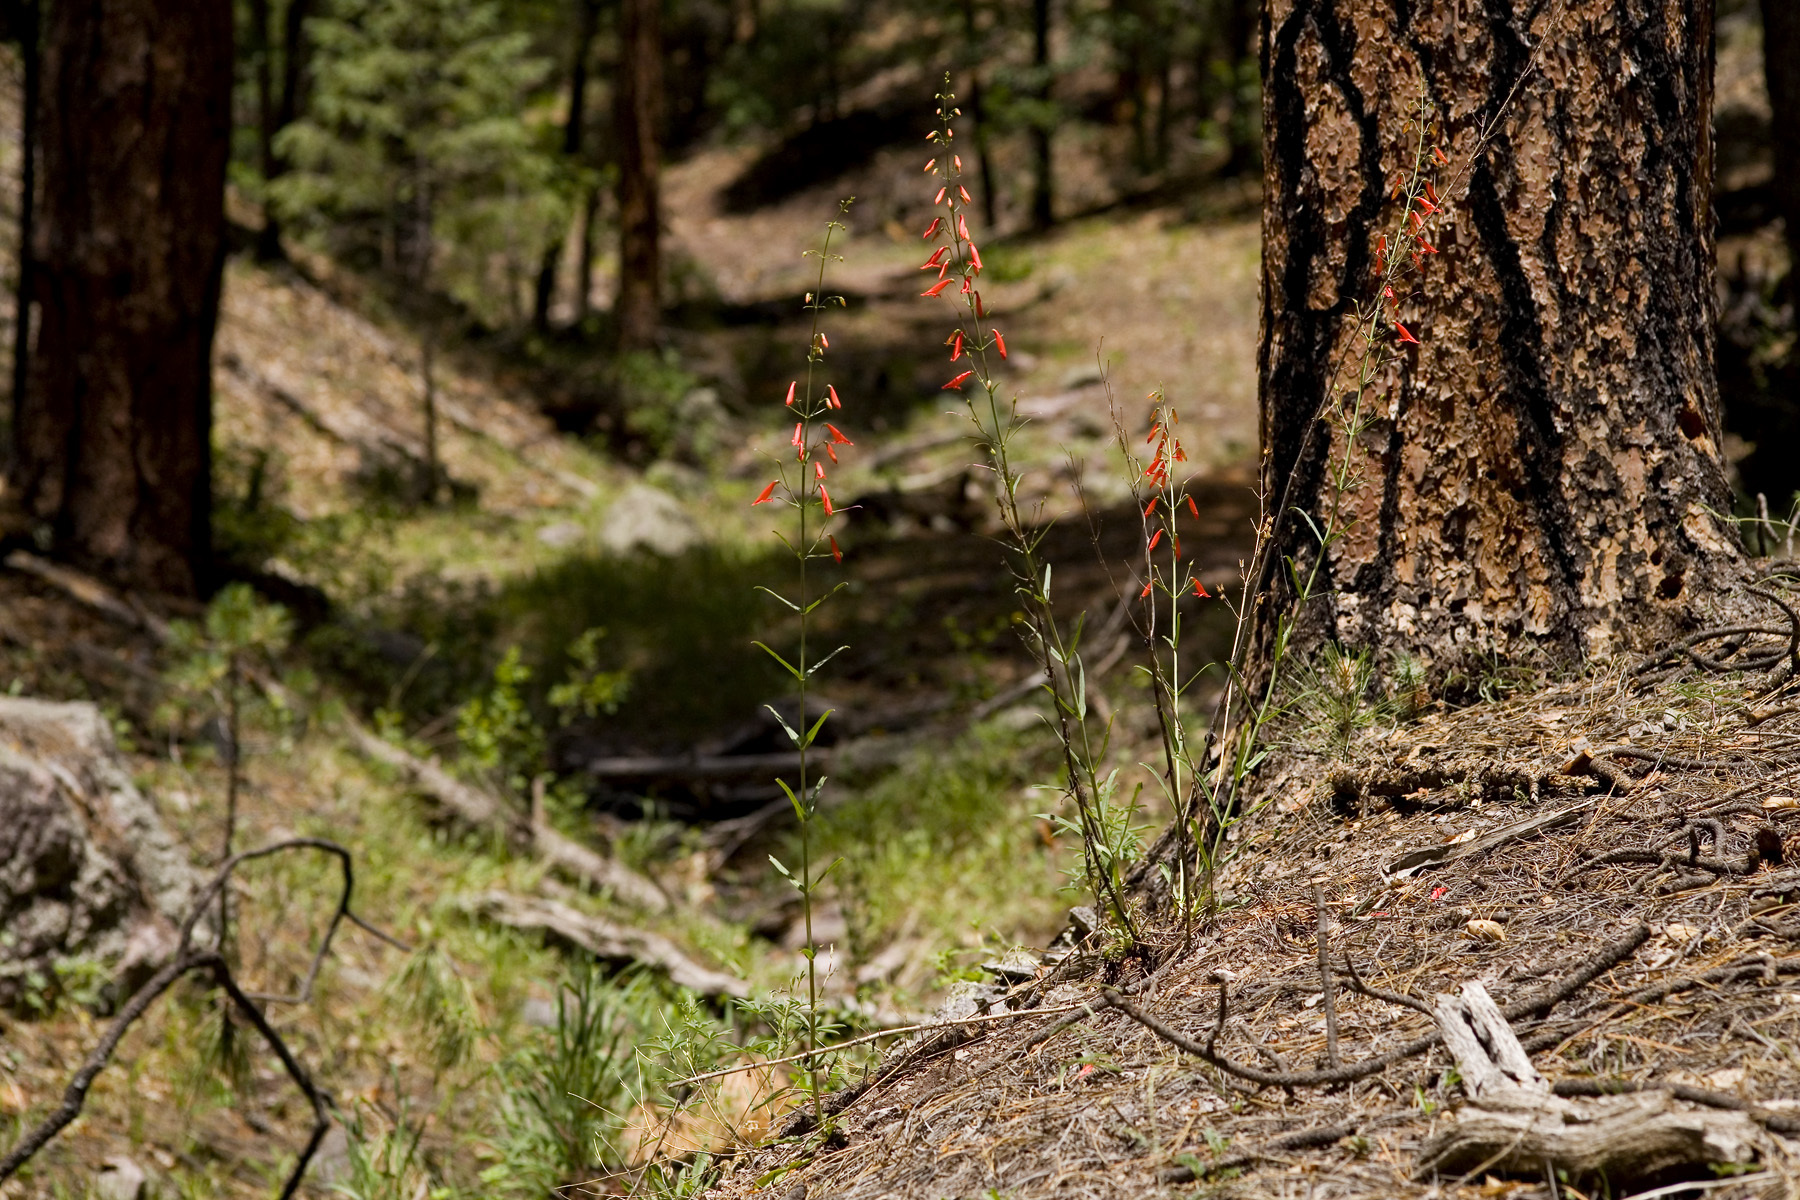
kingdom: Plantae
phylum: Tracheophyta
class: Magnoliopsida
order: Lamiales
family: Plantaginaceae
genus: Penstemon
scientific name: Penstemon barbatus
